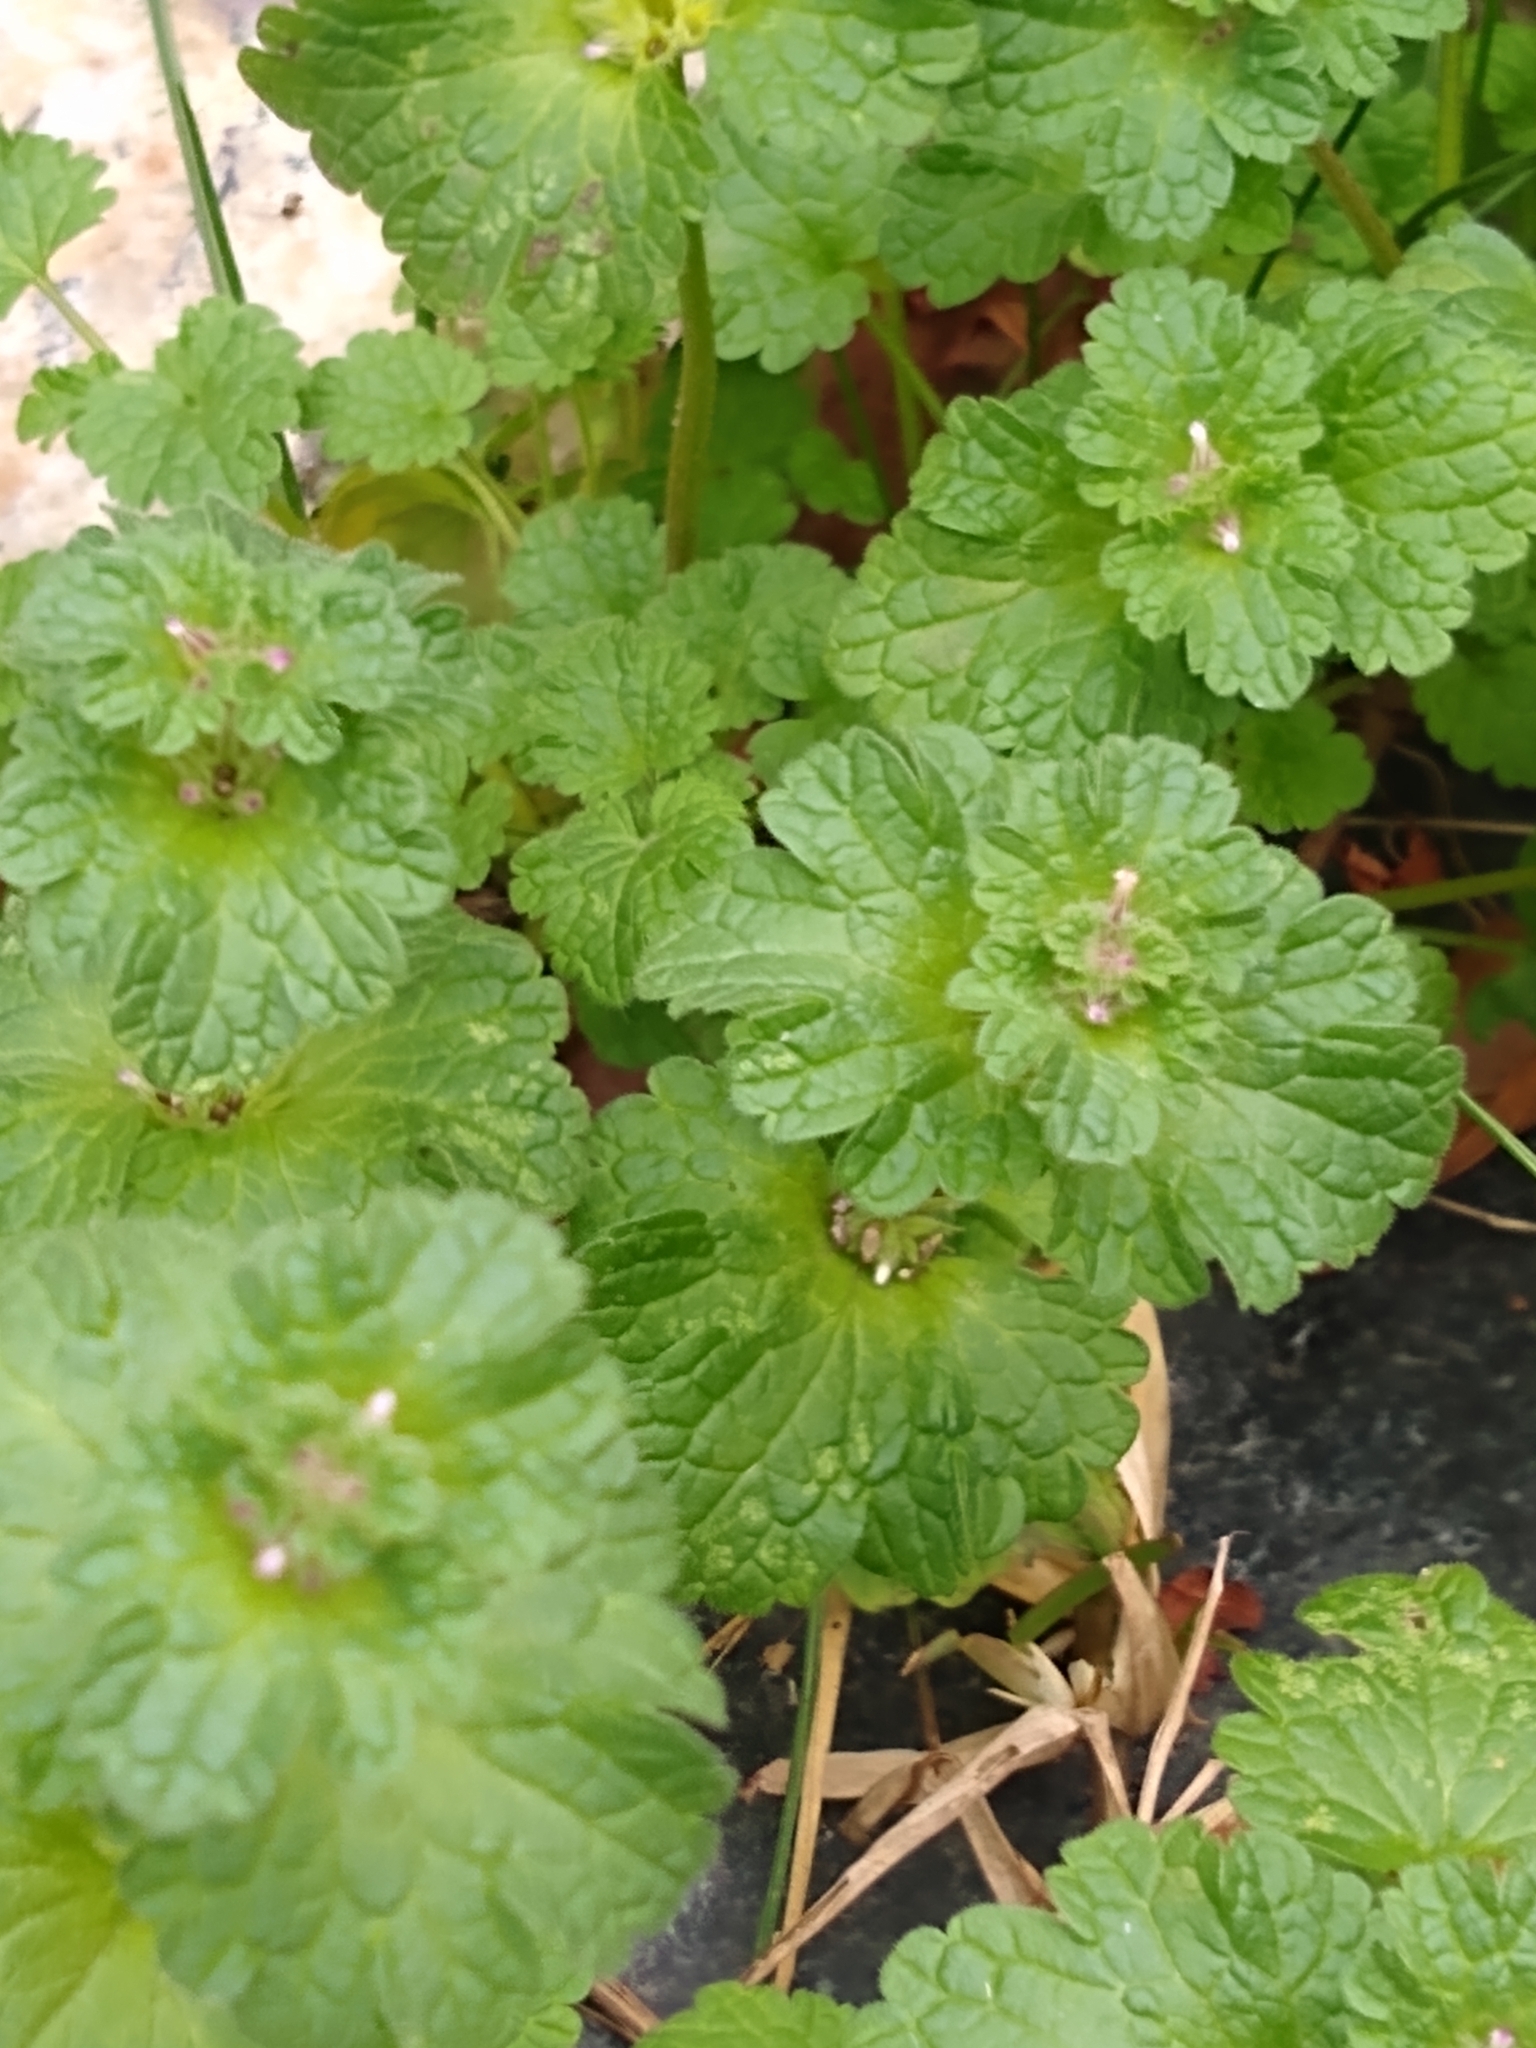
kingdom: Plantae
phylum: Tracheophyta
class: Magnoliopsida
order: Lamiales
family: Lamiaceae
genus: Lamium
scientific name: Lamium amplexicaule
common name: Henbit dead-nettle
